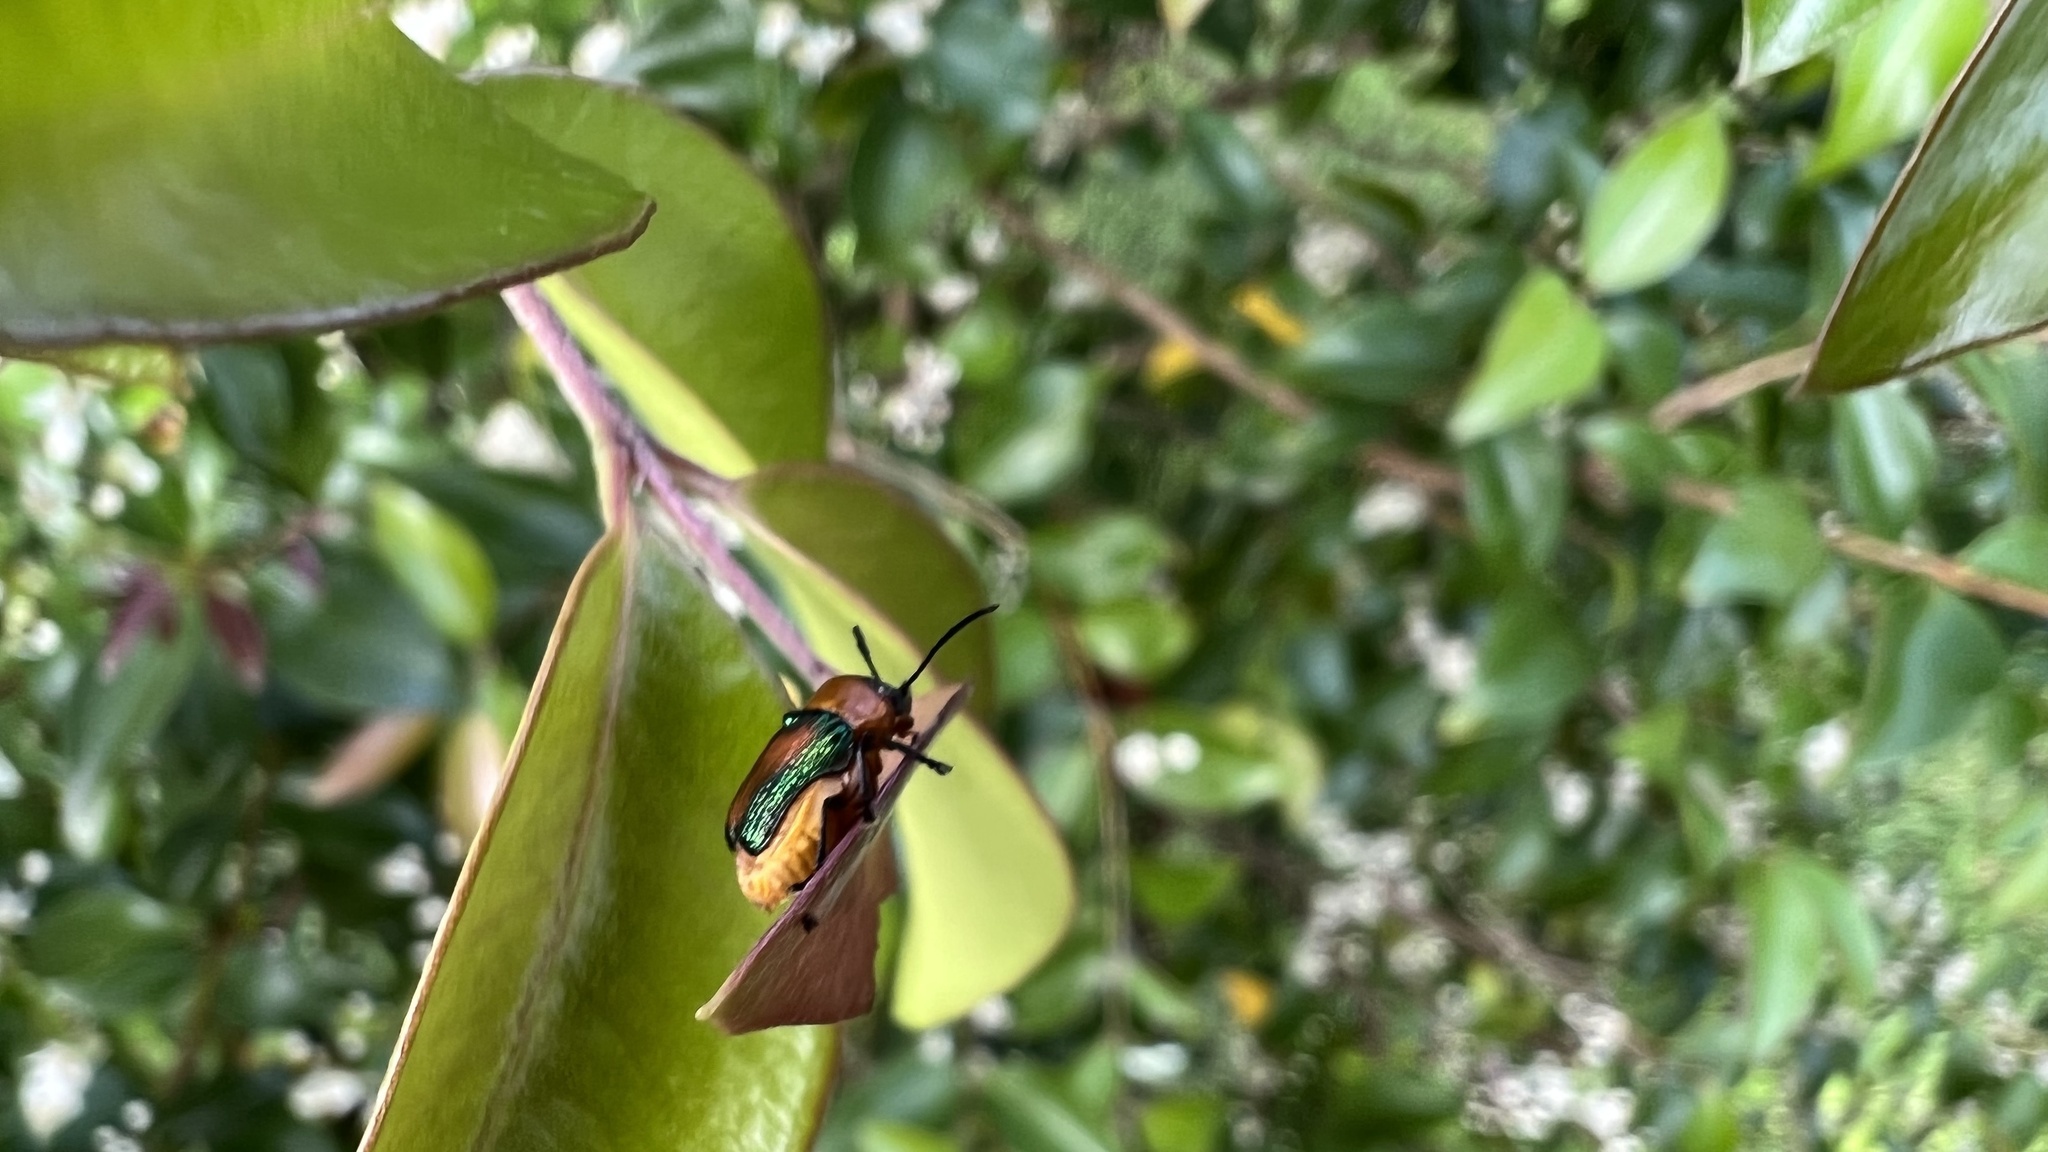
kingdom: Animalia
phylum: Arthropoda
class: Insecta
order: Coleoptera
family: Chrysomelidae
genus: Aporocera
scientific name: Aporocera iridipennis
